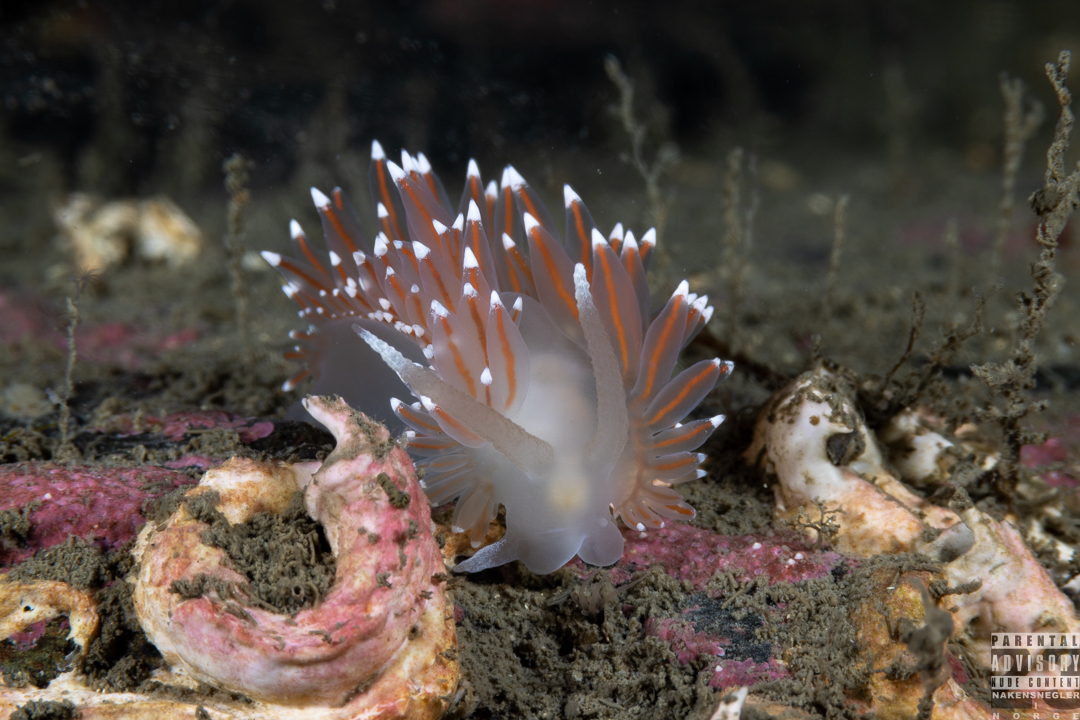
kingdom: Animalia
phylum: Mollusca
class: Gastropoda
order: Nudibranchia
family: Coryphellidae
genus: Coryphella
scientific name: Coryphella nobilis
